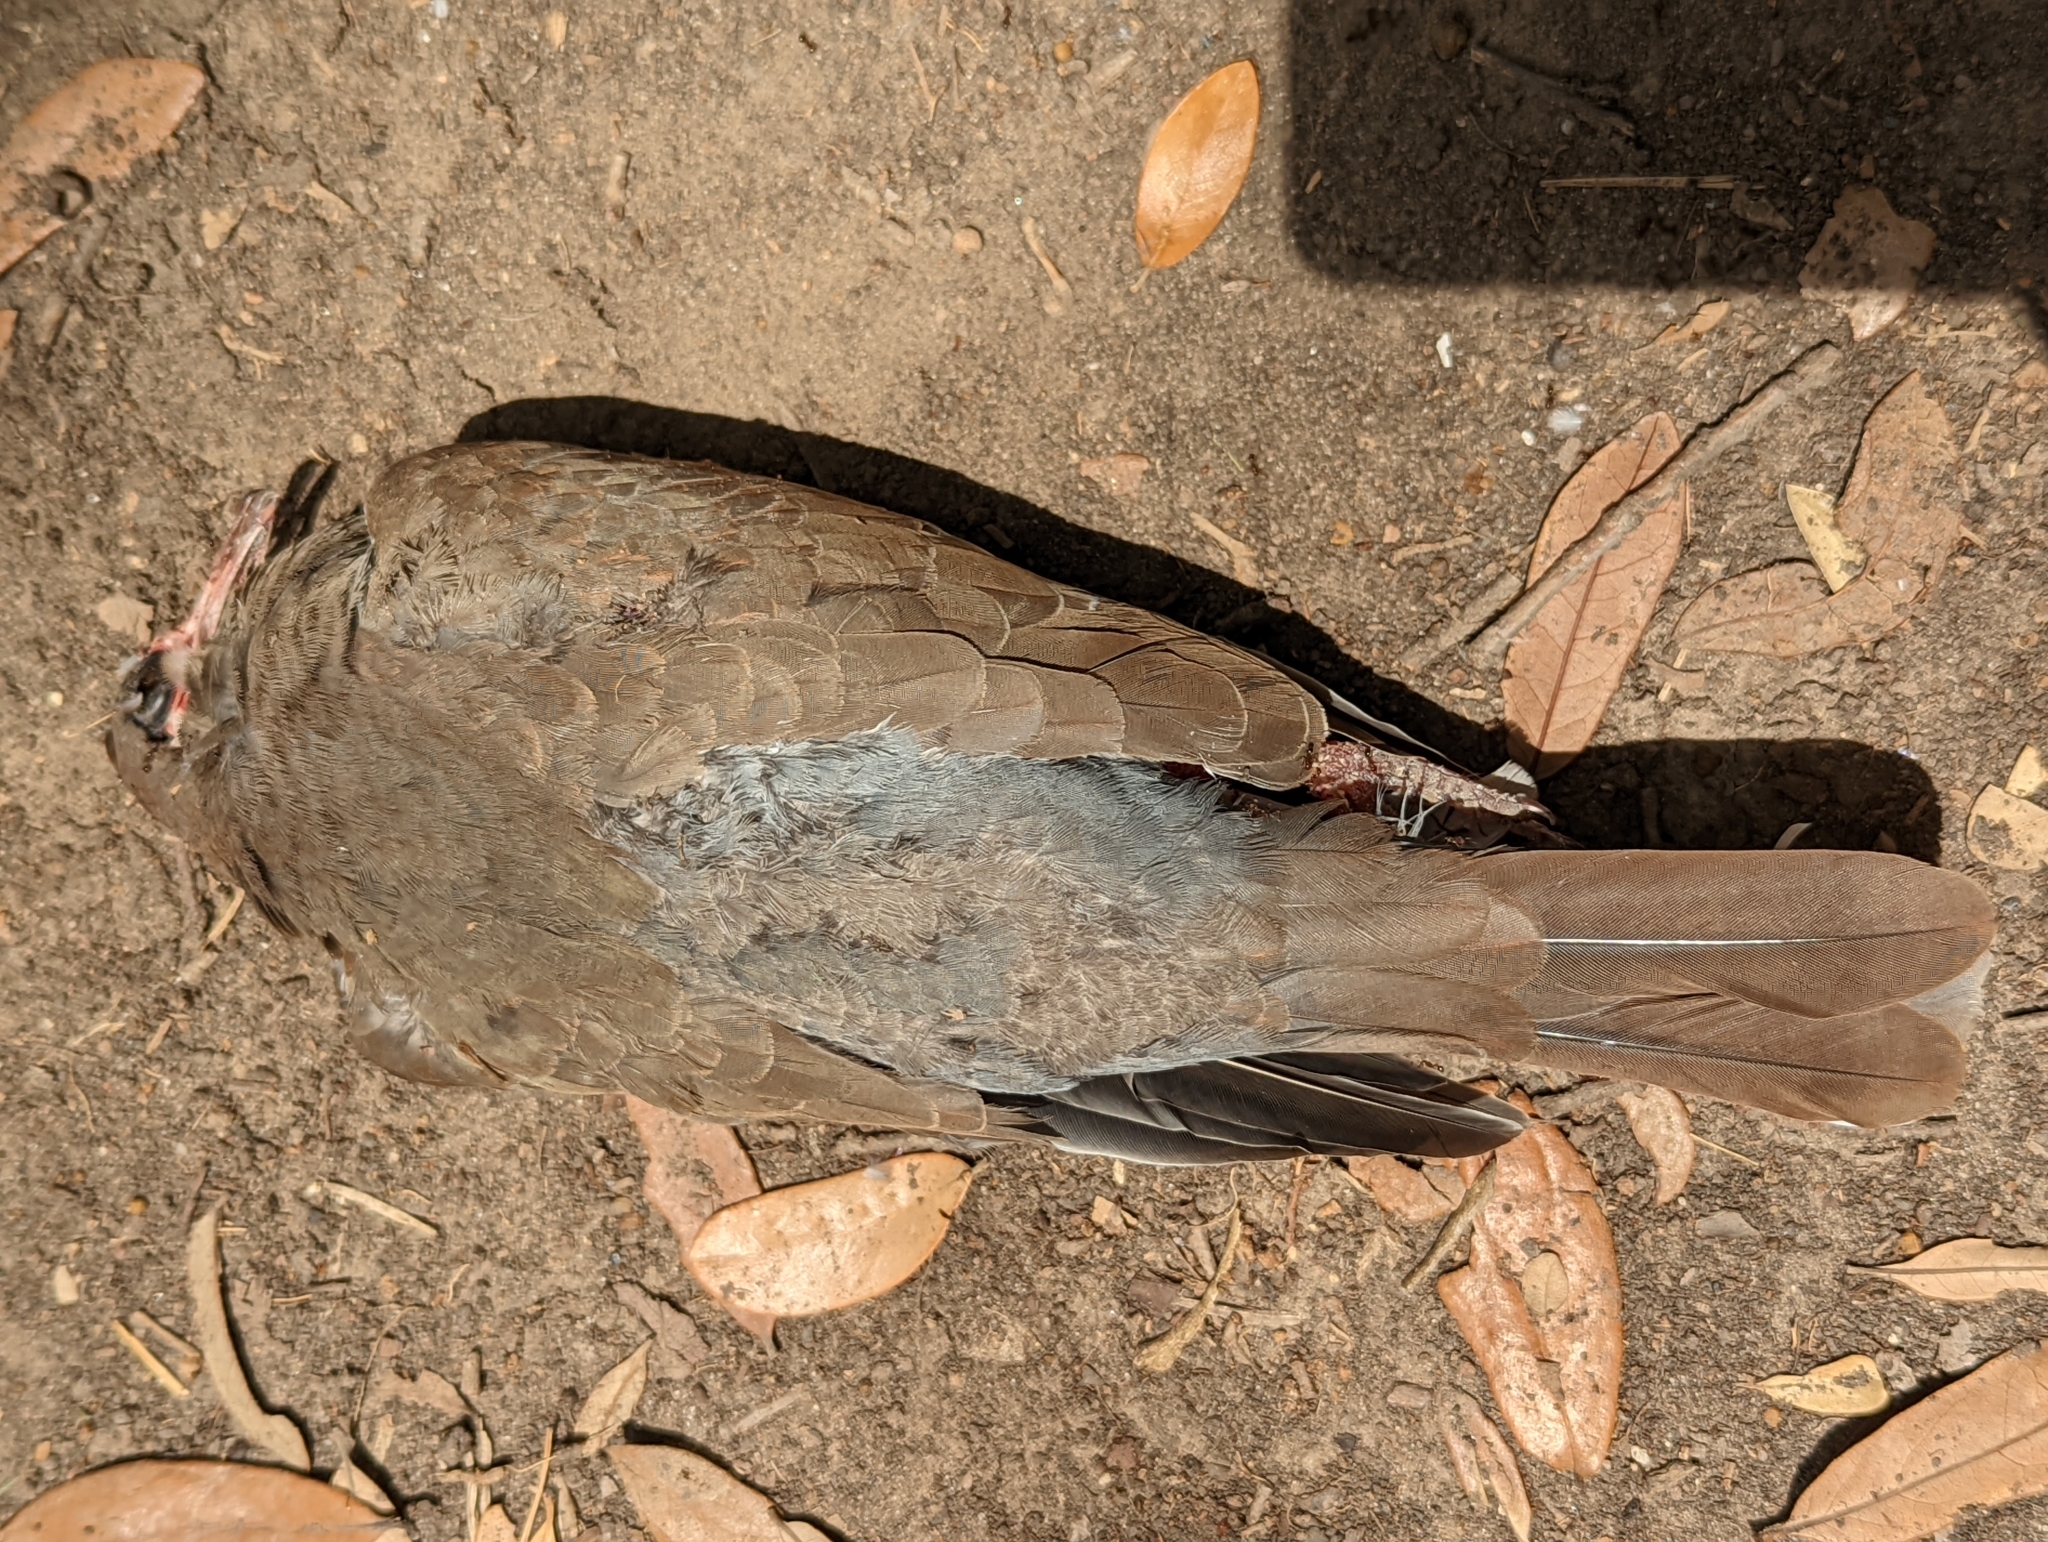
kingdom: Animalia
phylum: Chordata
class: Aves
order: Columbiformes
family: Columbidae
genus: Zenaida
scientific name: Zenaida asiatica
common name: White-winged dove
